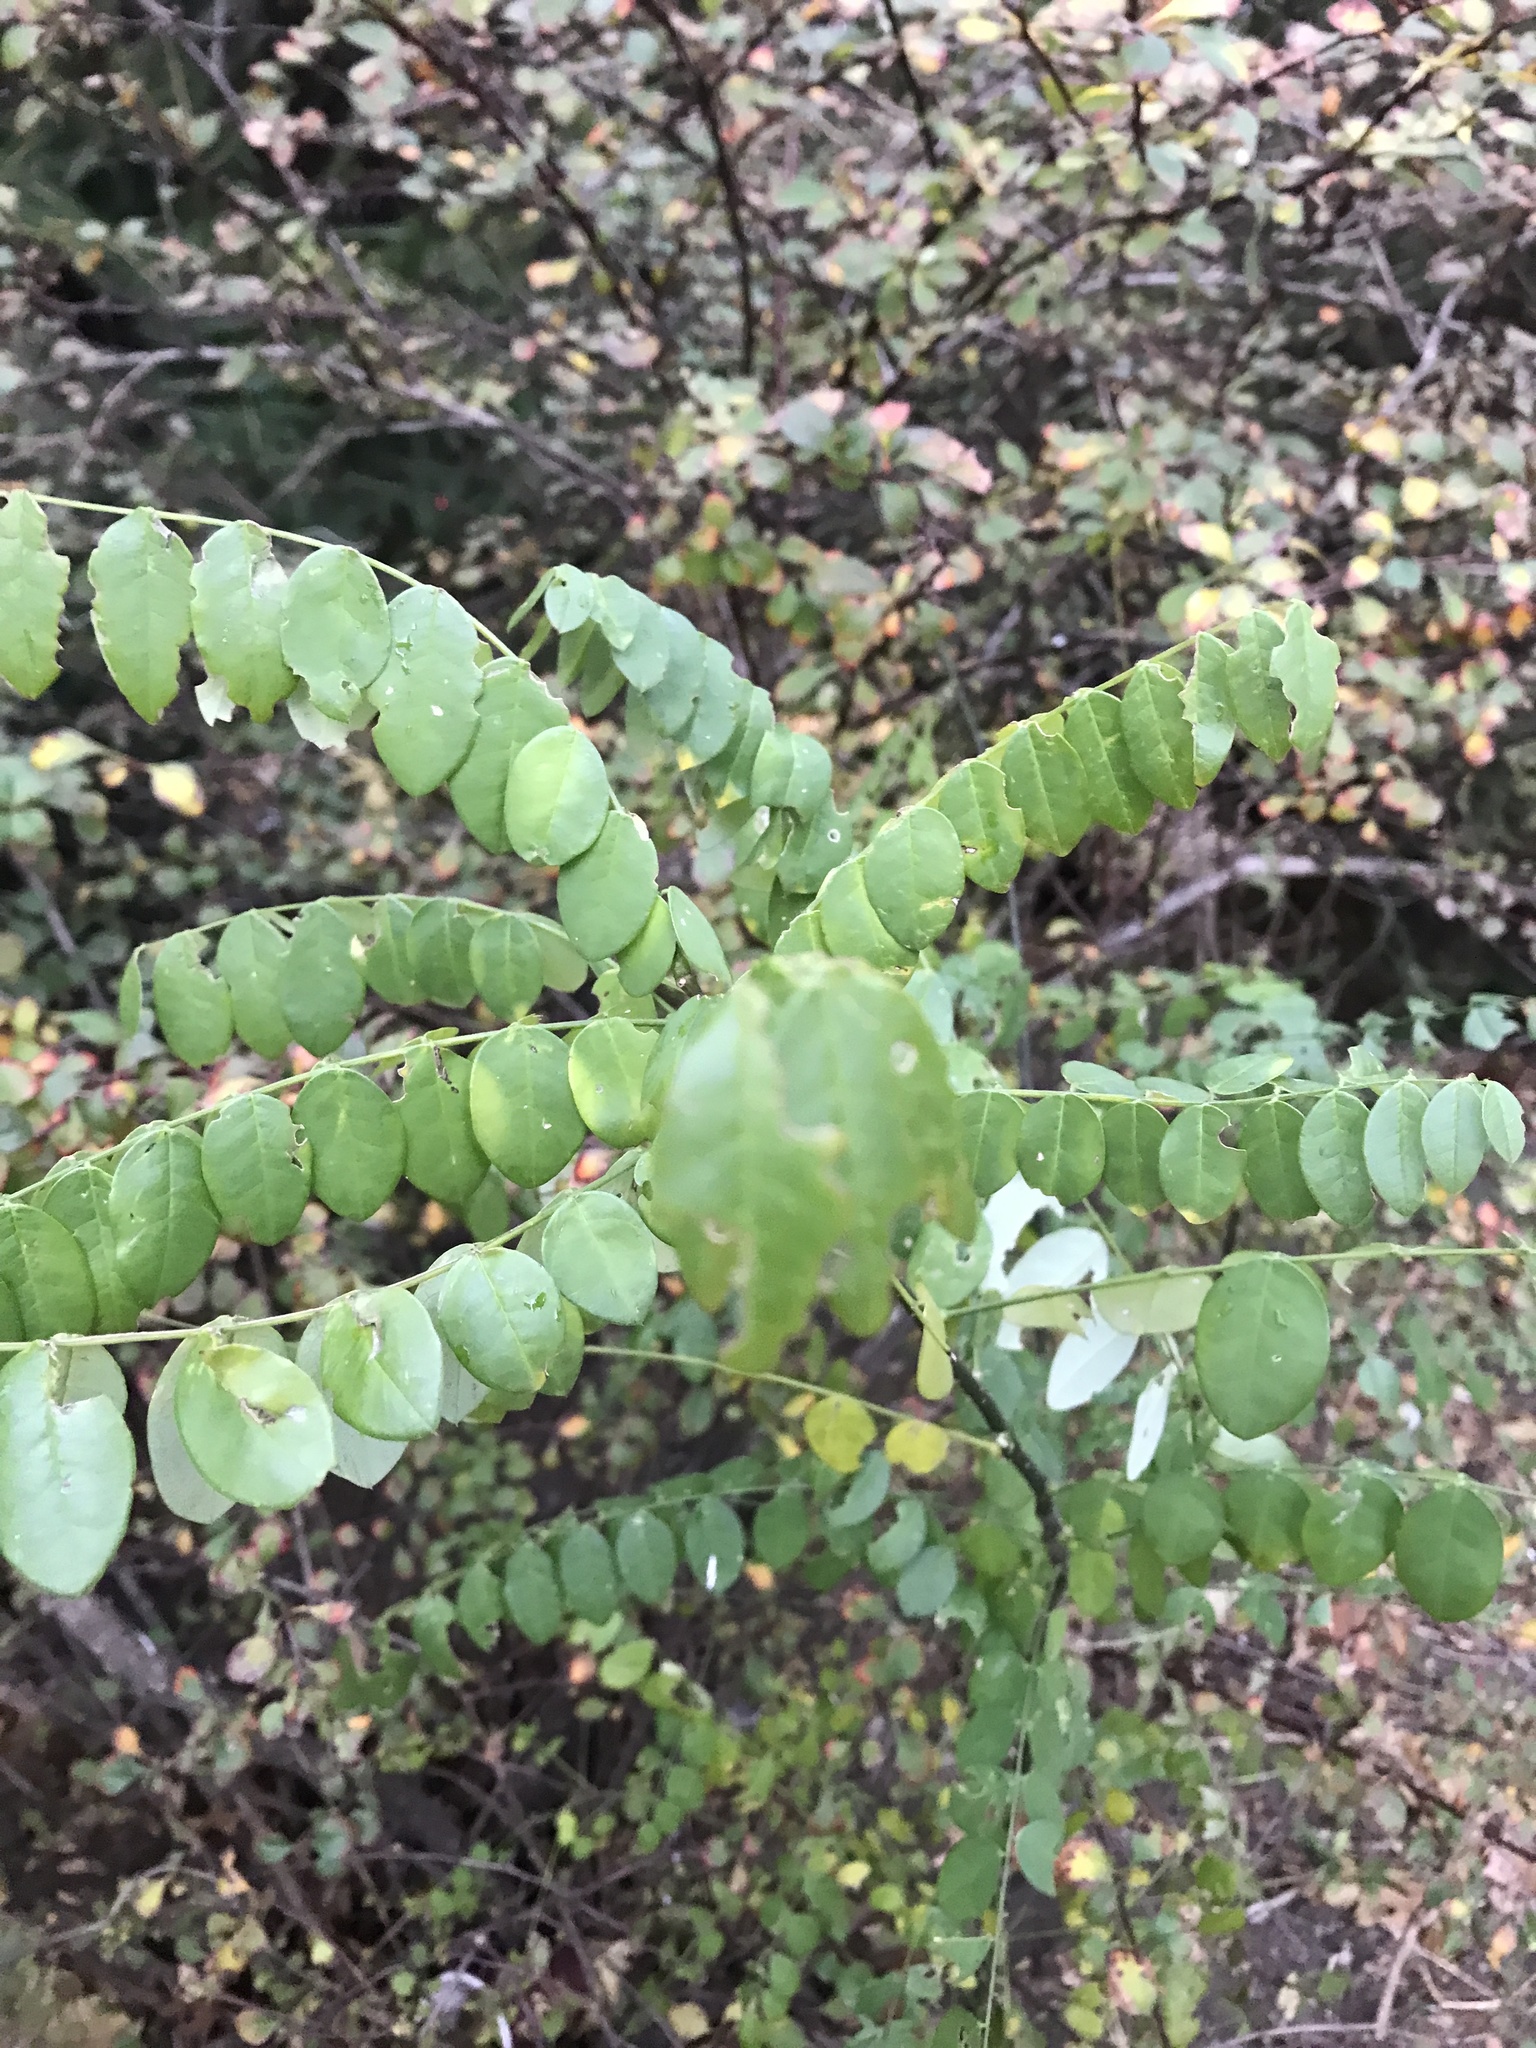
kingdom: Plantae
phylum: Tracheophyta
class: Magnoliopsida
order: Fabales
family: Fabaceae
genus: Robinia
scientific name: Robinia pseudoacacia
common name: Black locust
